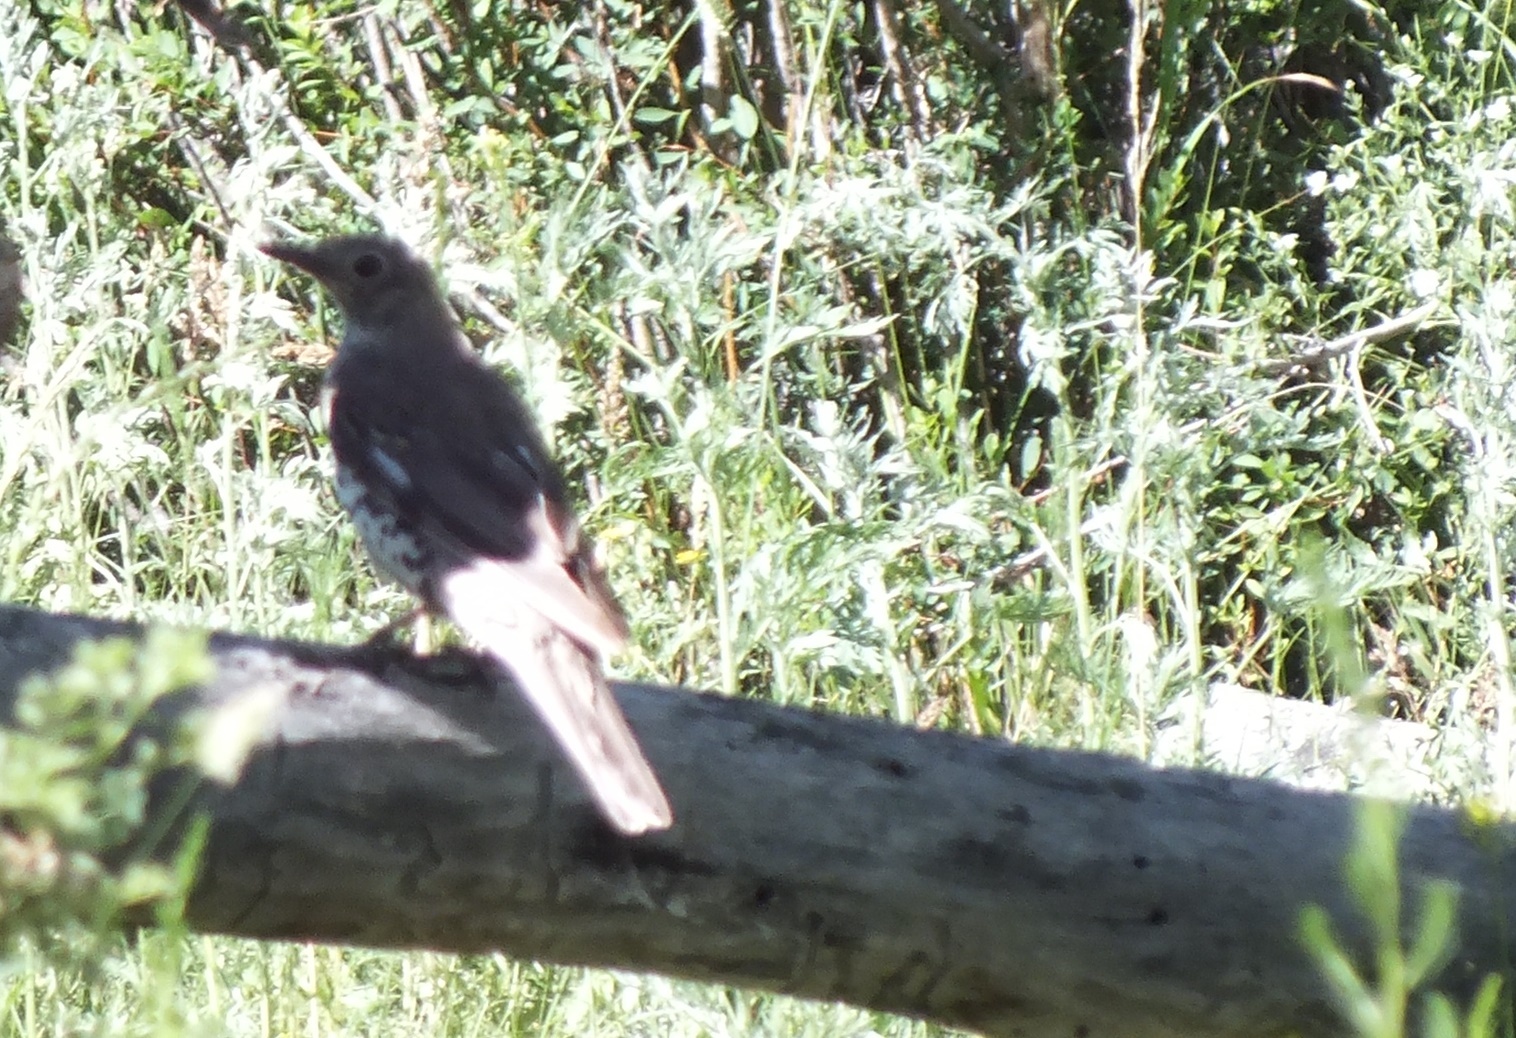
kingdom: Animalia
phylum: Chordata
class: Aves
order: Passeriformes
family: Turdidae
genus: Turdus
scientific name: Turdus viscivorus
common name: Mistle thrush
